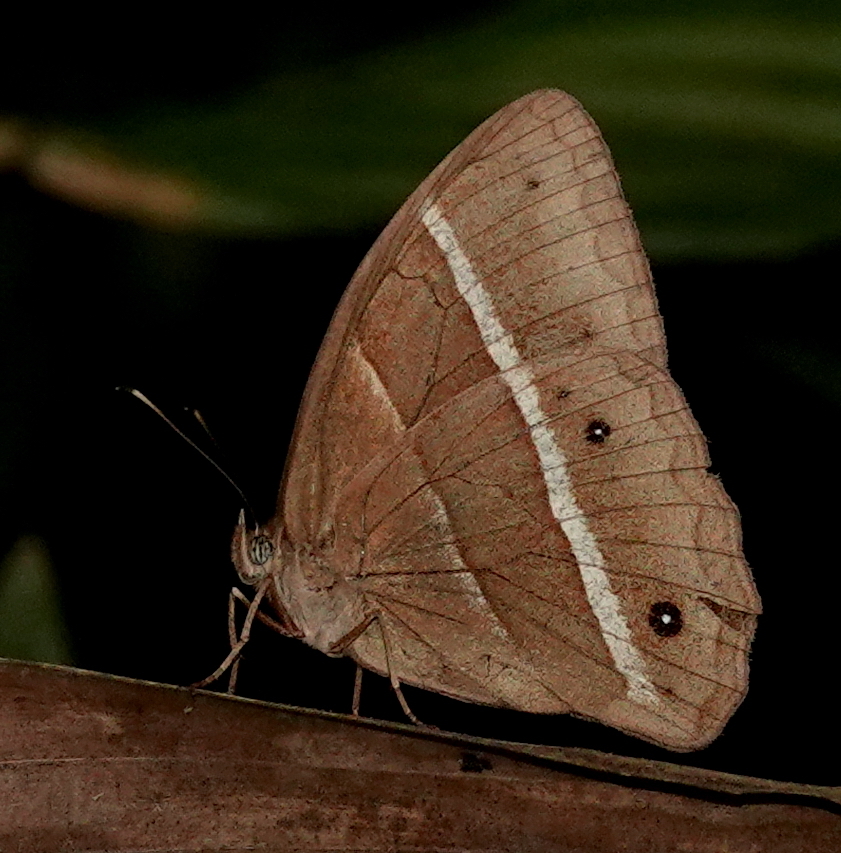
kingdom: Animalia
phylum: Arthropoda
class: Insecta
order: Lepidoptera
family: Nymphalidae
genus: Parataygetis
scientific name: Parataygetis lineata
